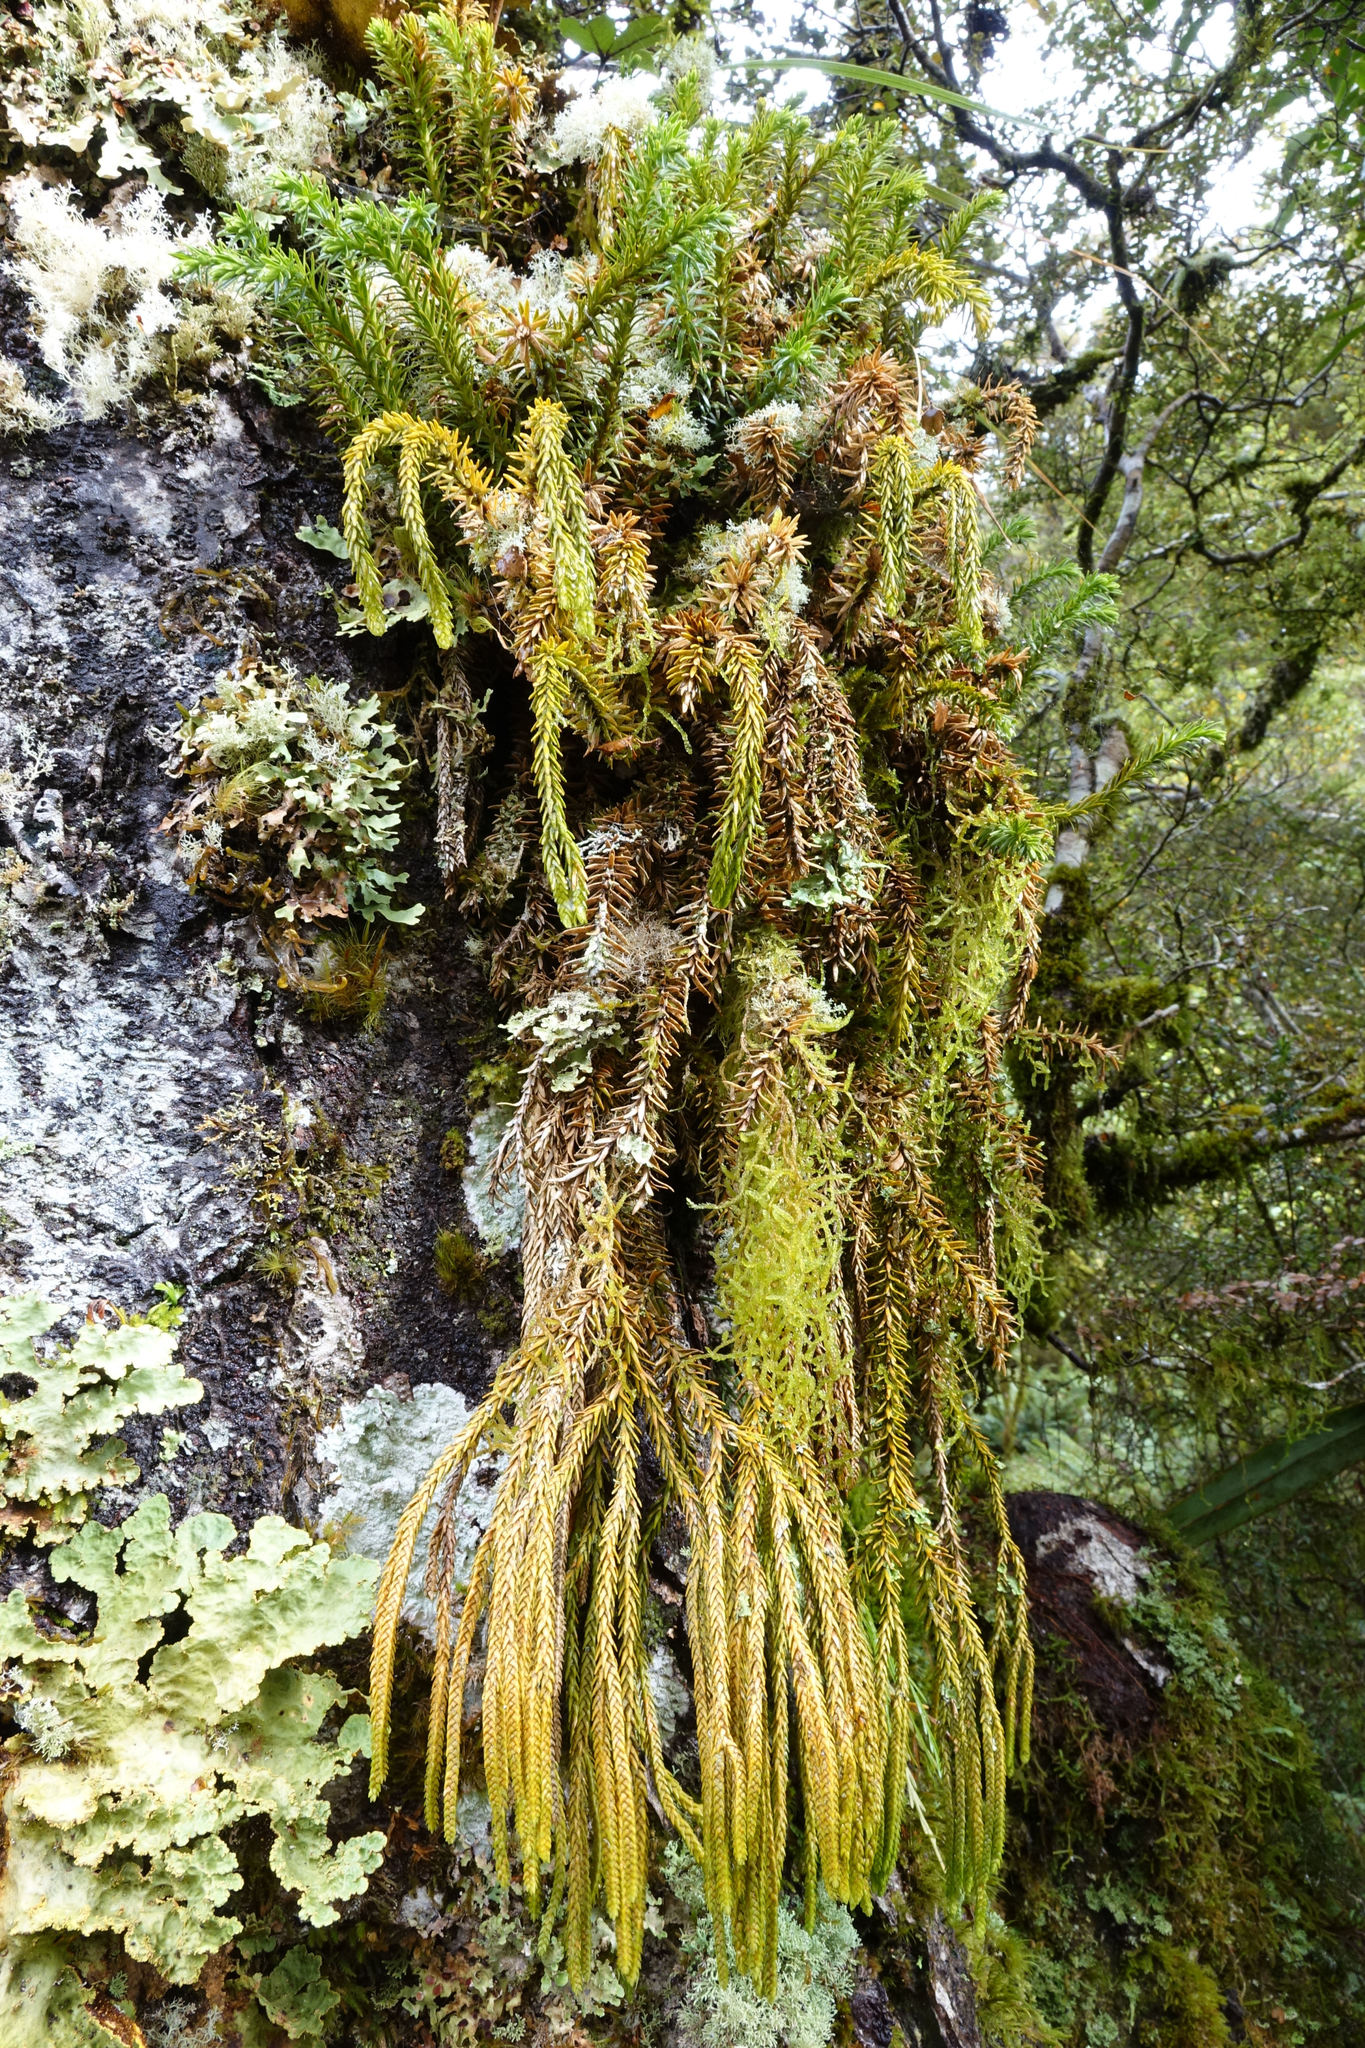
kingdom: Plantae
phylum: Tracheophyta
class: Lycopodiopsida
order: Lycopodiales
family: Lycopodiaceae
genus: Phlegmariurus
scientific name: Phlegmariurus varius
